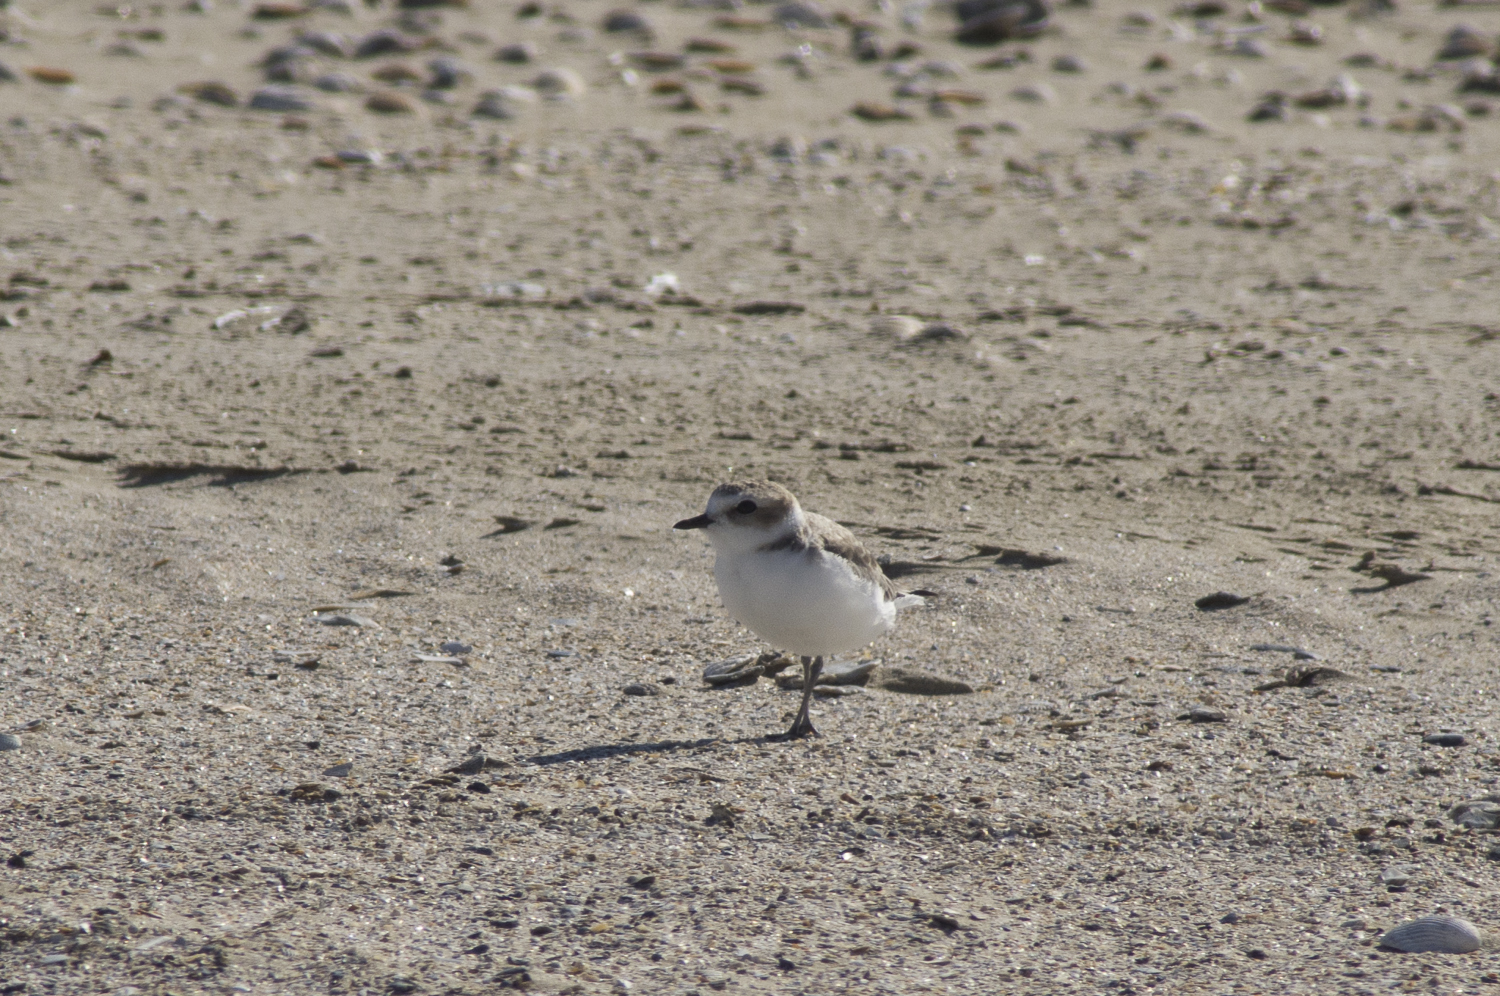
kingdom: Animalia
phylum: Chordata
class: Aves
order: Charadriiformes
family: Charadriidae
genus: Anarhynchus
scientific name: Anarhynchus
